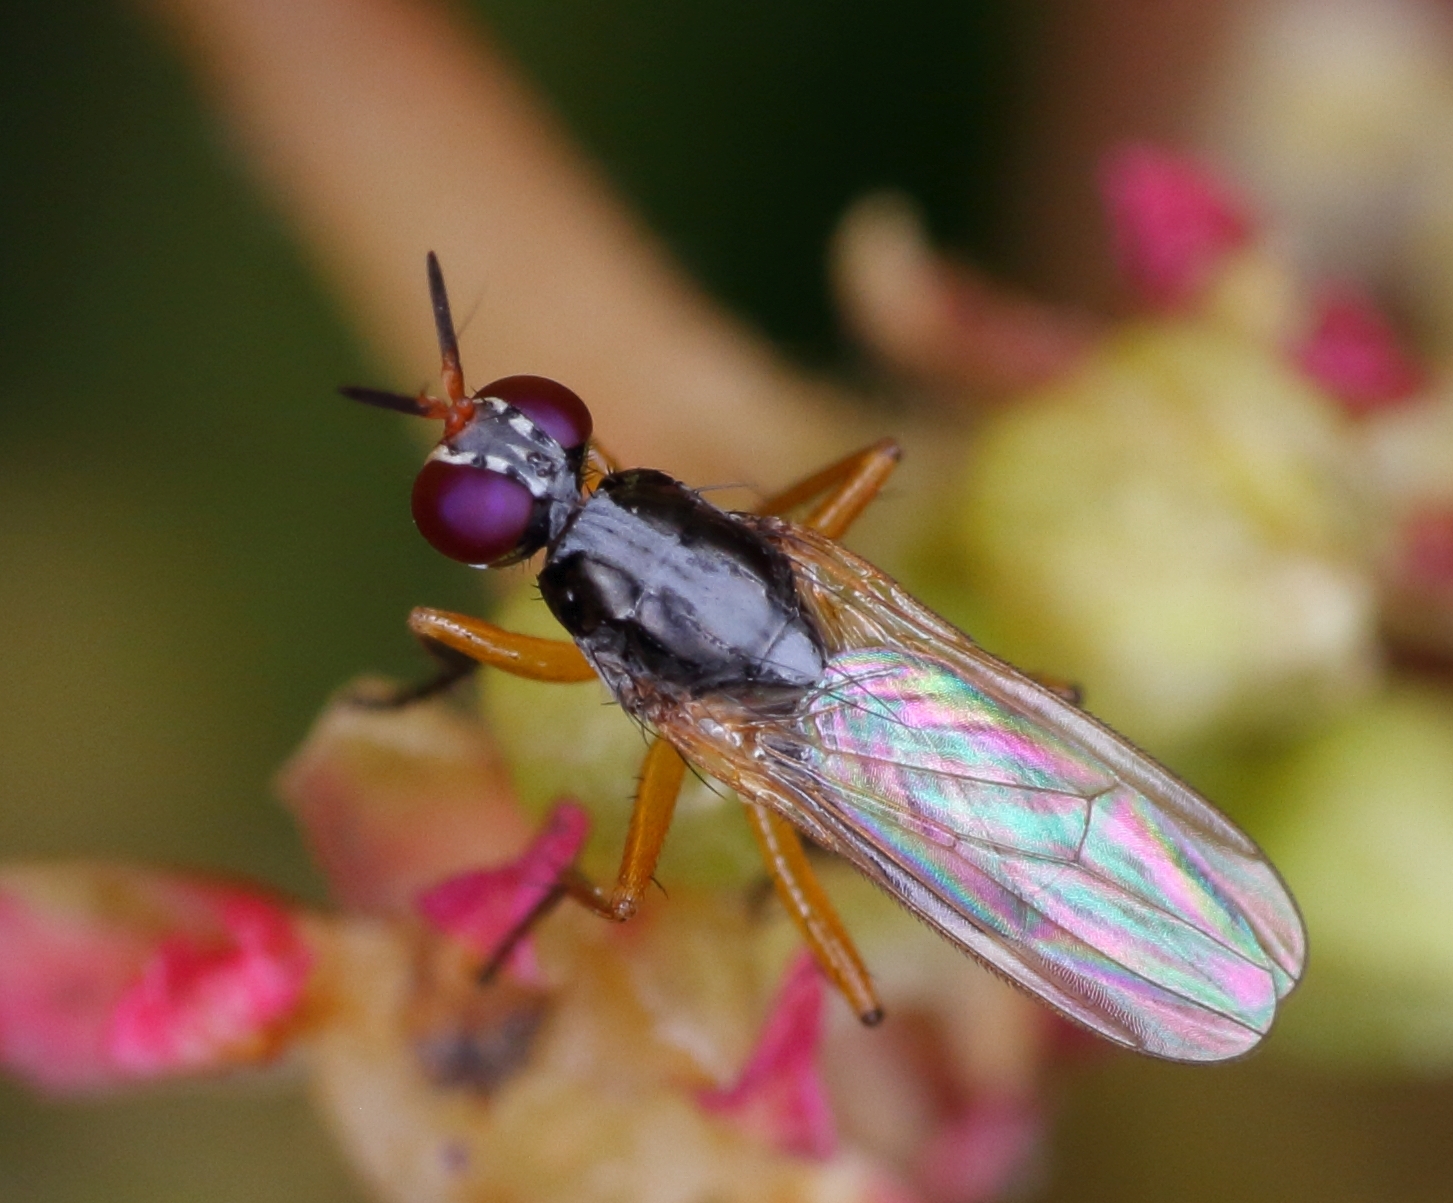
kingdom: Animalia
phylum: Arthropoda
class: Insecta
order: Diptera
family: Muscidae
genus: Anaphalantus
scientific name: Anaphalantus longicornis
